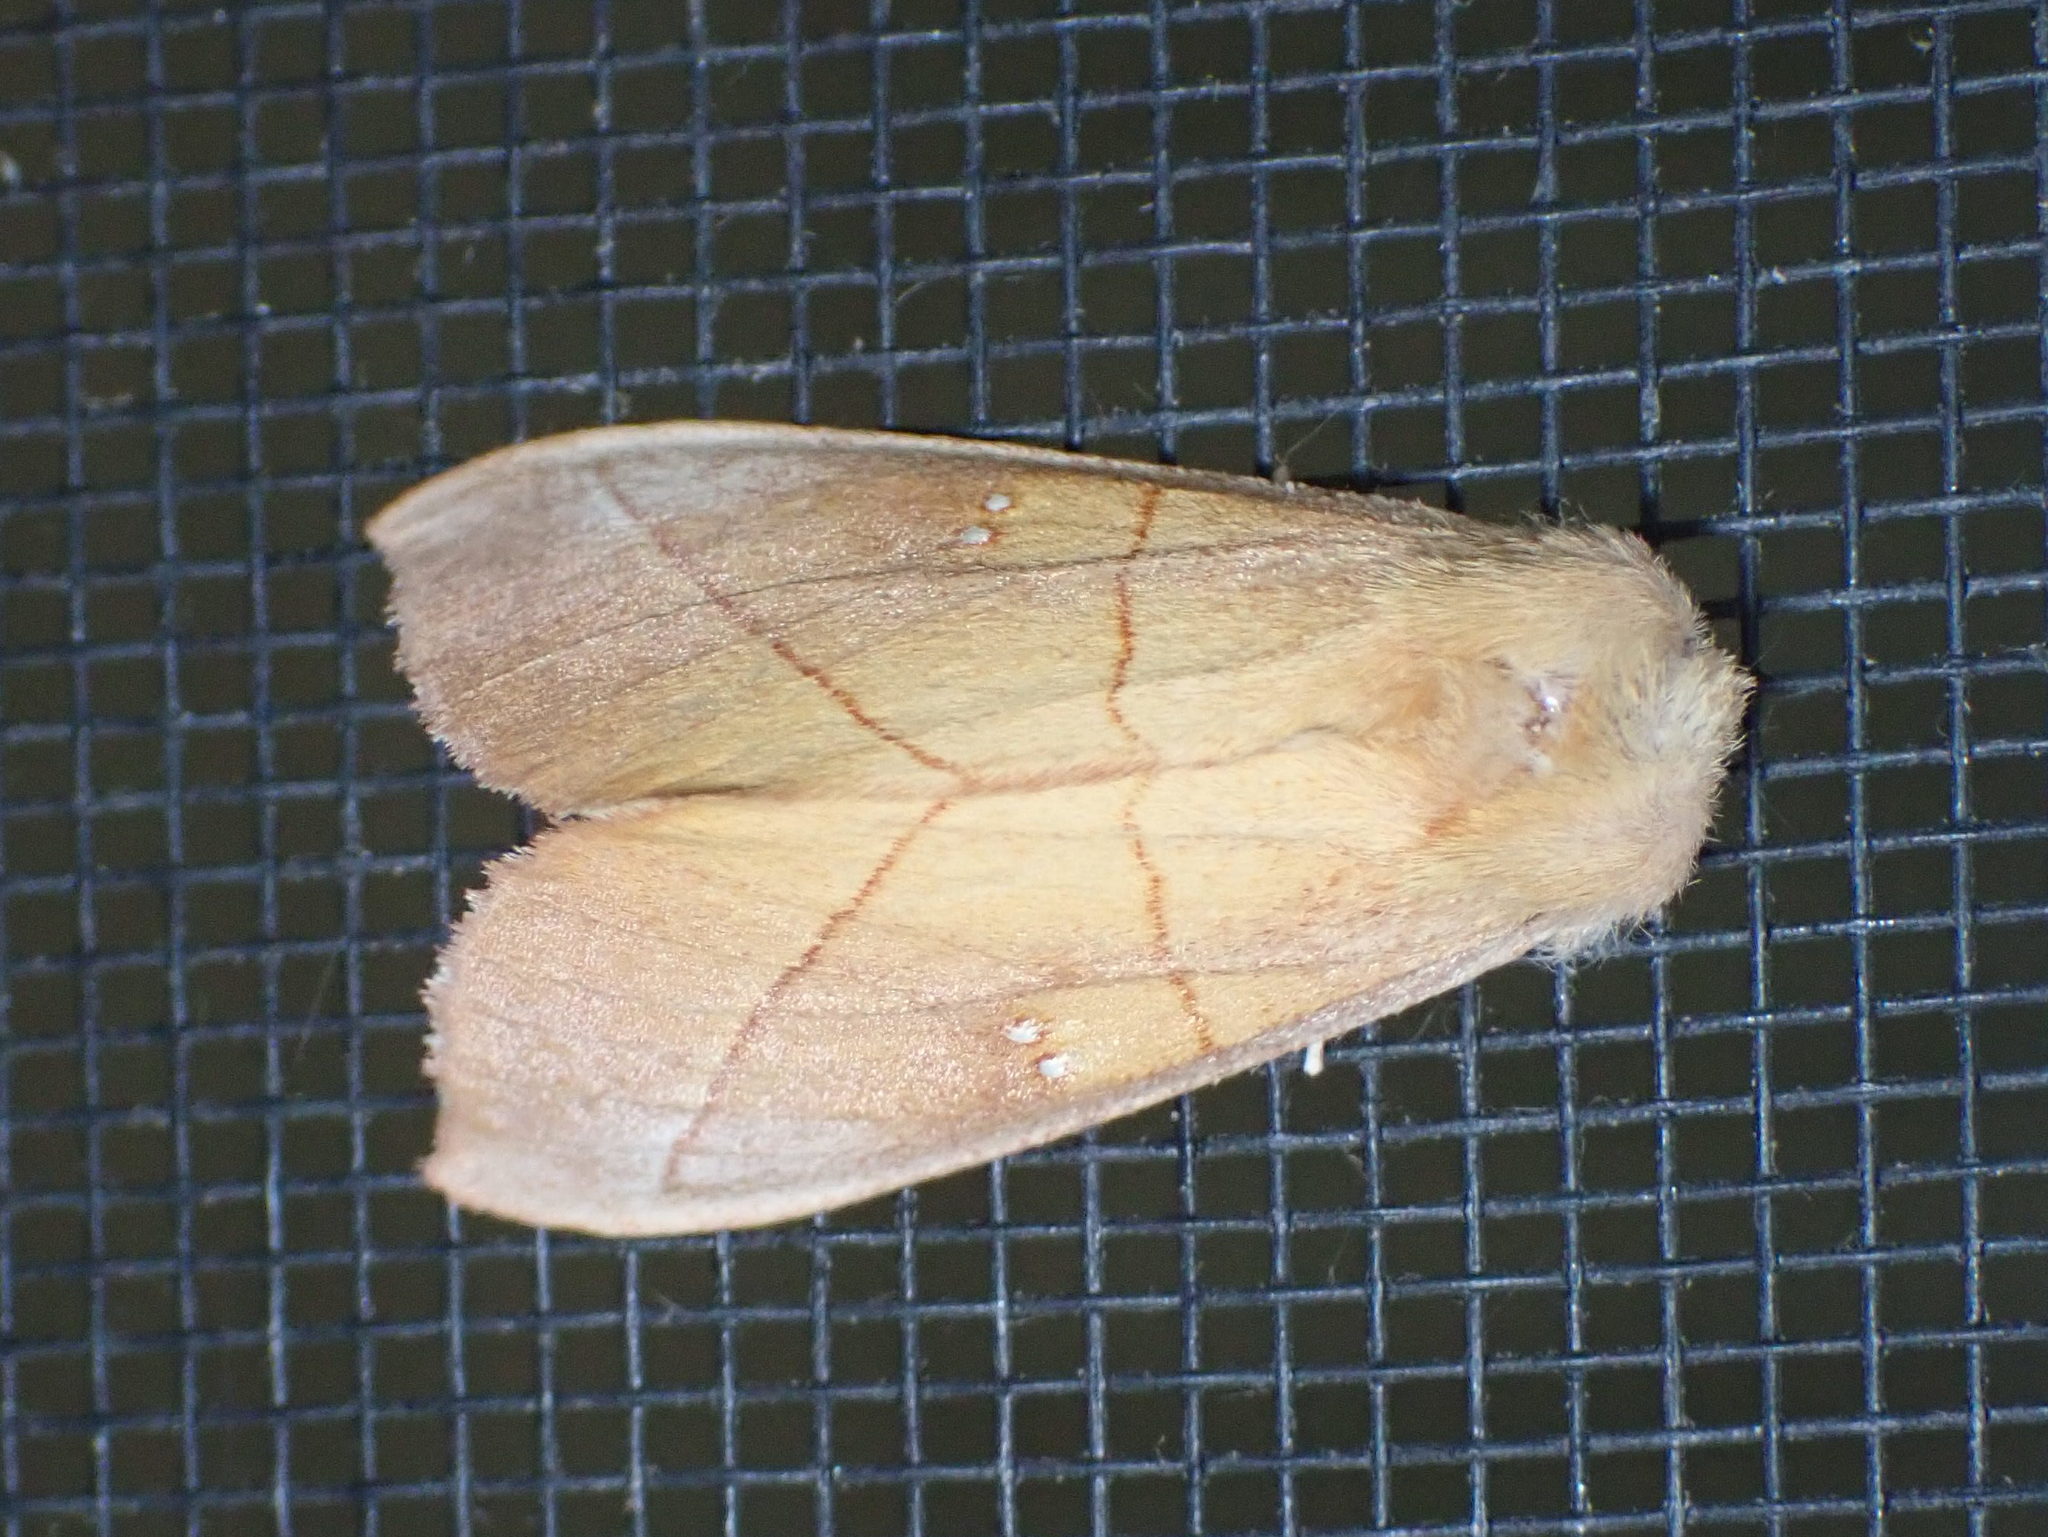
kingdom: Animalia
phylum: Arthropoda
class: Insecta
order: Lepidoptera
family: Notodontidae
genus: Nadata
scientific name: Nadata gibbosa
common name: White-dotted prominent
